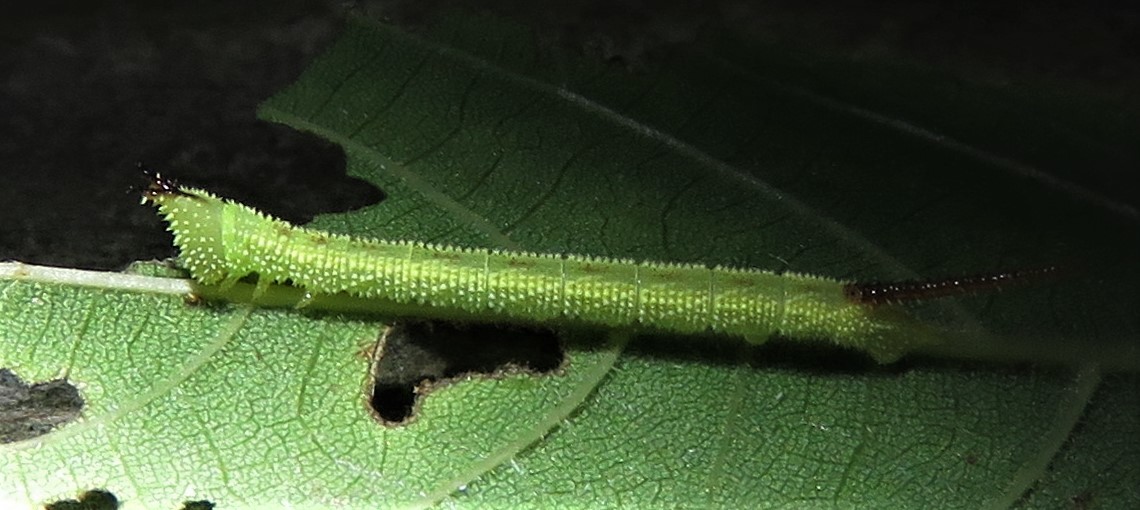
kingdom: Animalia
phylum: Arthropoda
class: Insecta
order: Lepidoptera
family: Sphingidae
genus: Amorpha
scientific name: Amorpha juglandis
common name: Walnut sphinx
